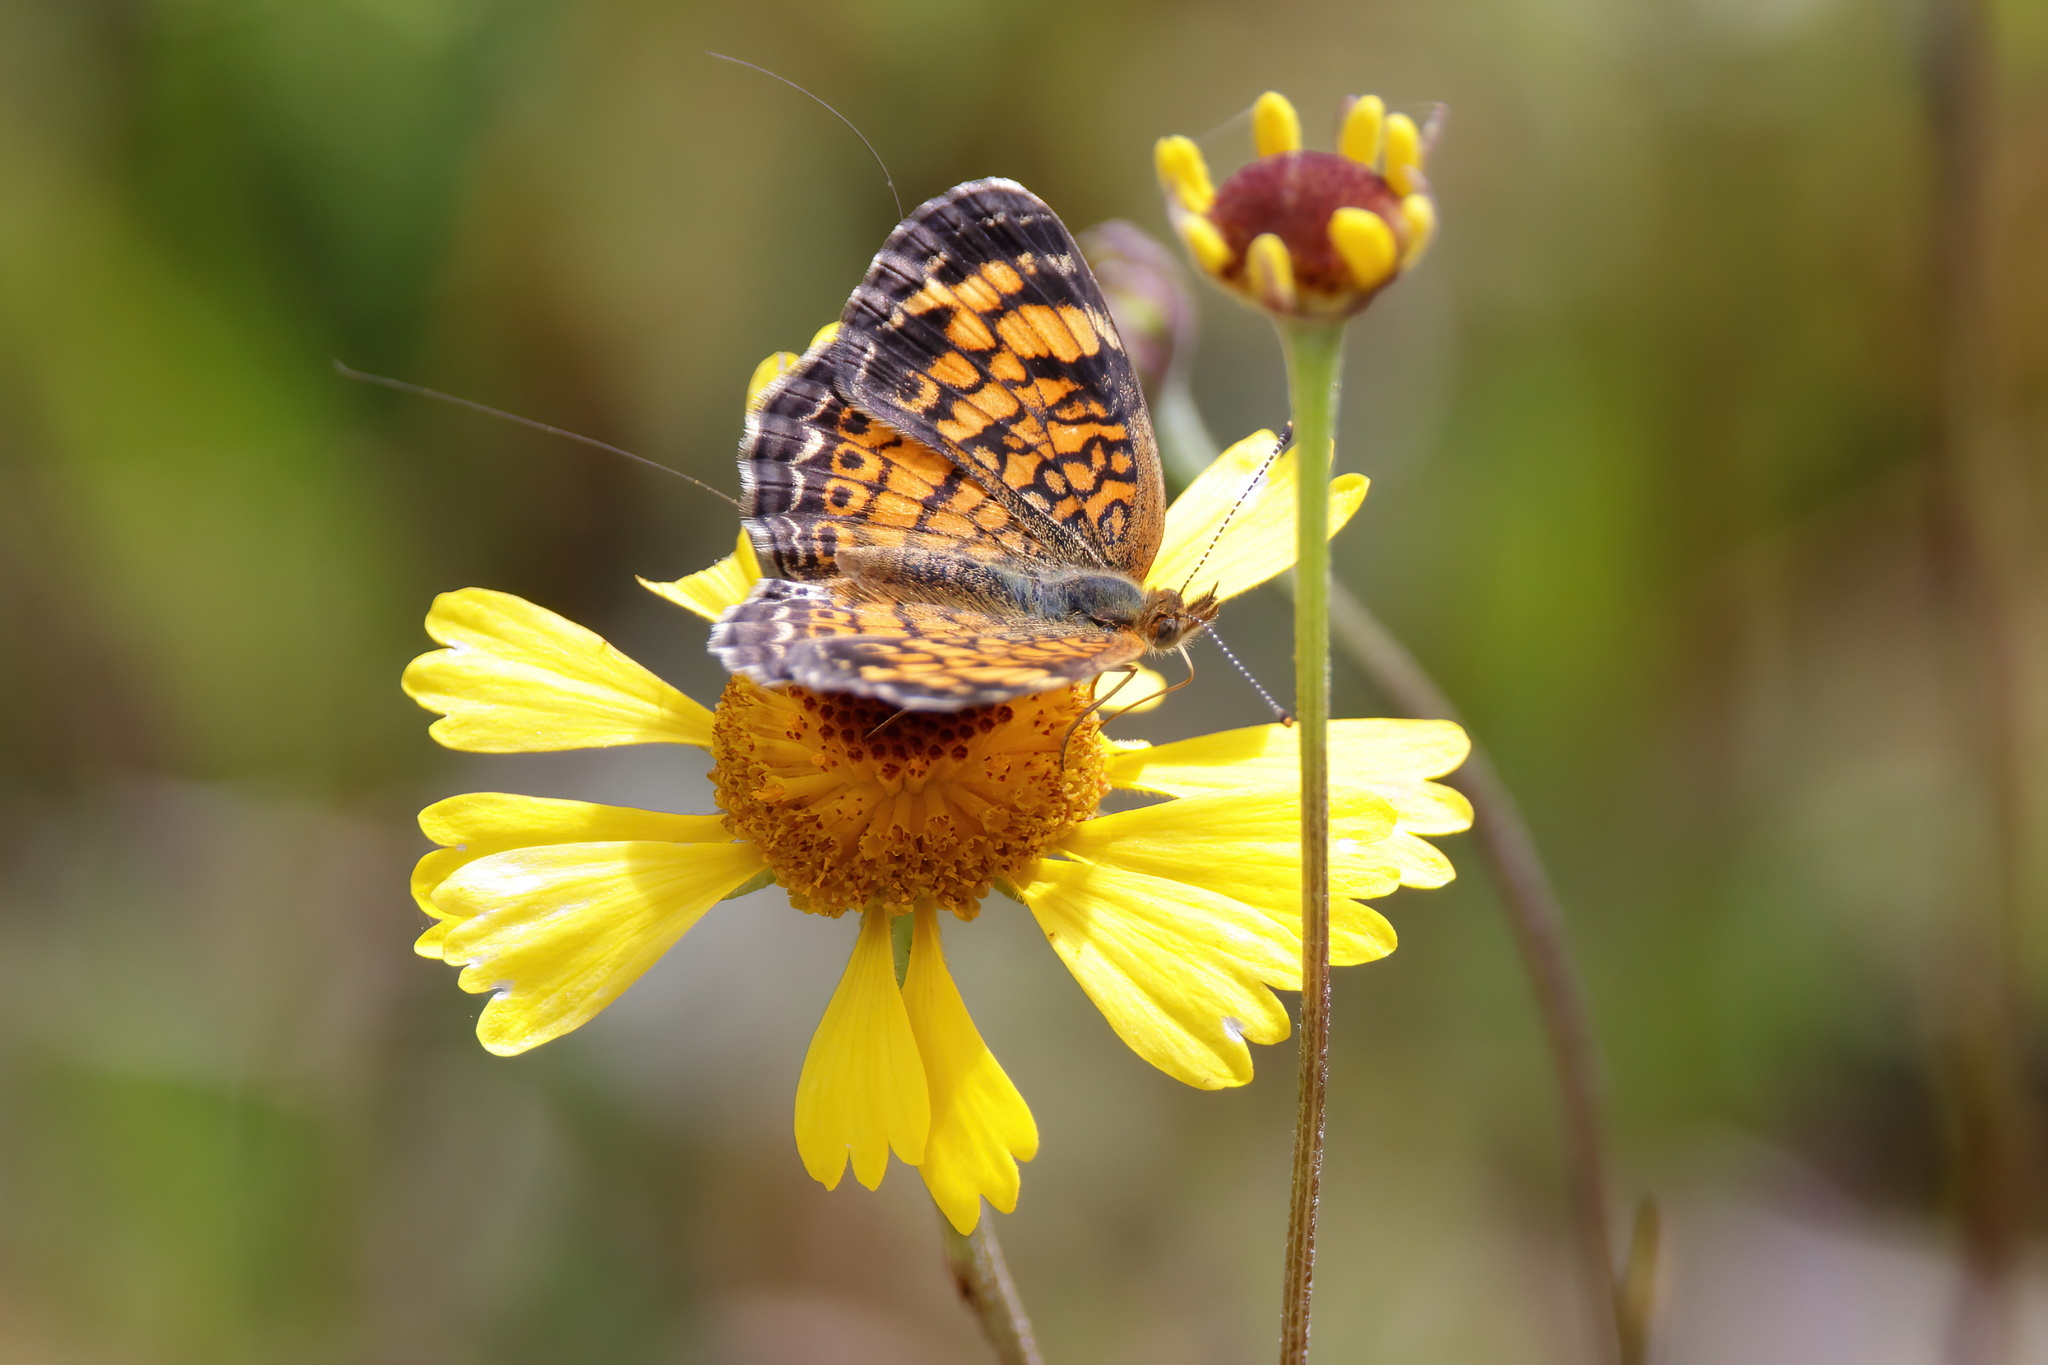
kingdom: Animalia
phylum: Arthropoda
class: Insecta
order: Lepidoptera
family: Nymphalidae
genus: Phyciodes
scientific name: Phyciodes tharos
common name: Pearl crescent
